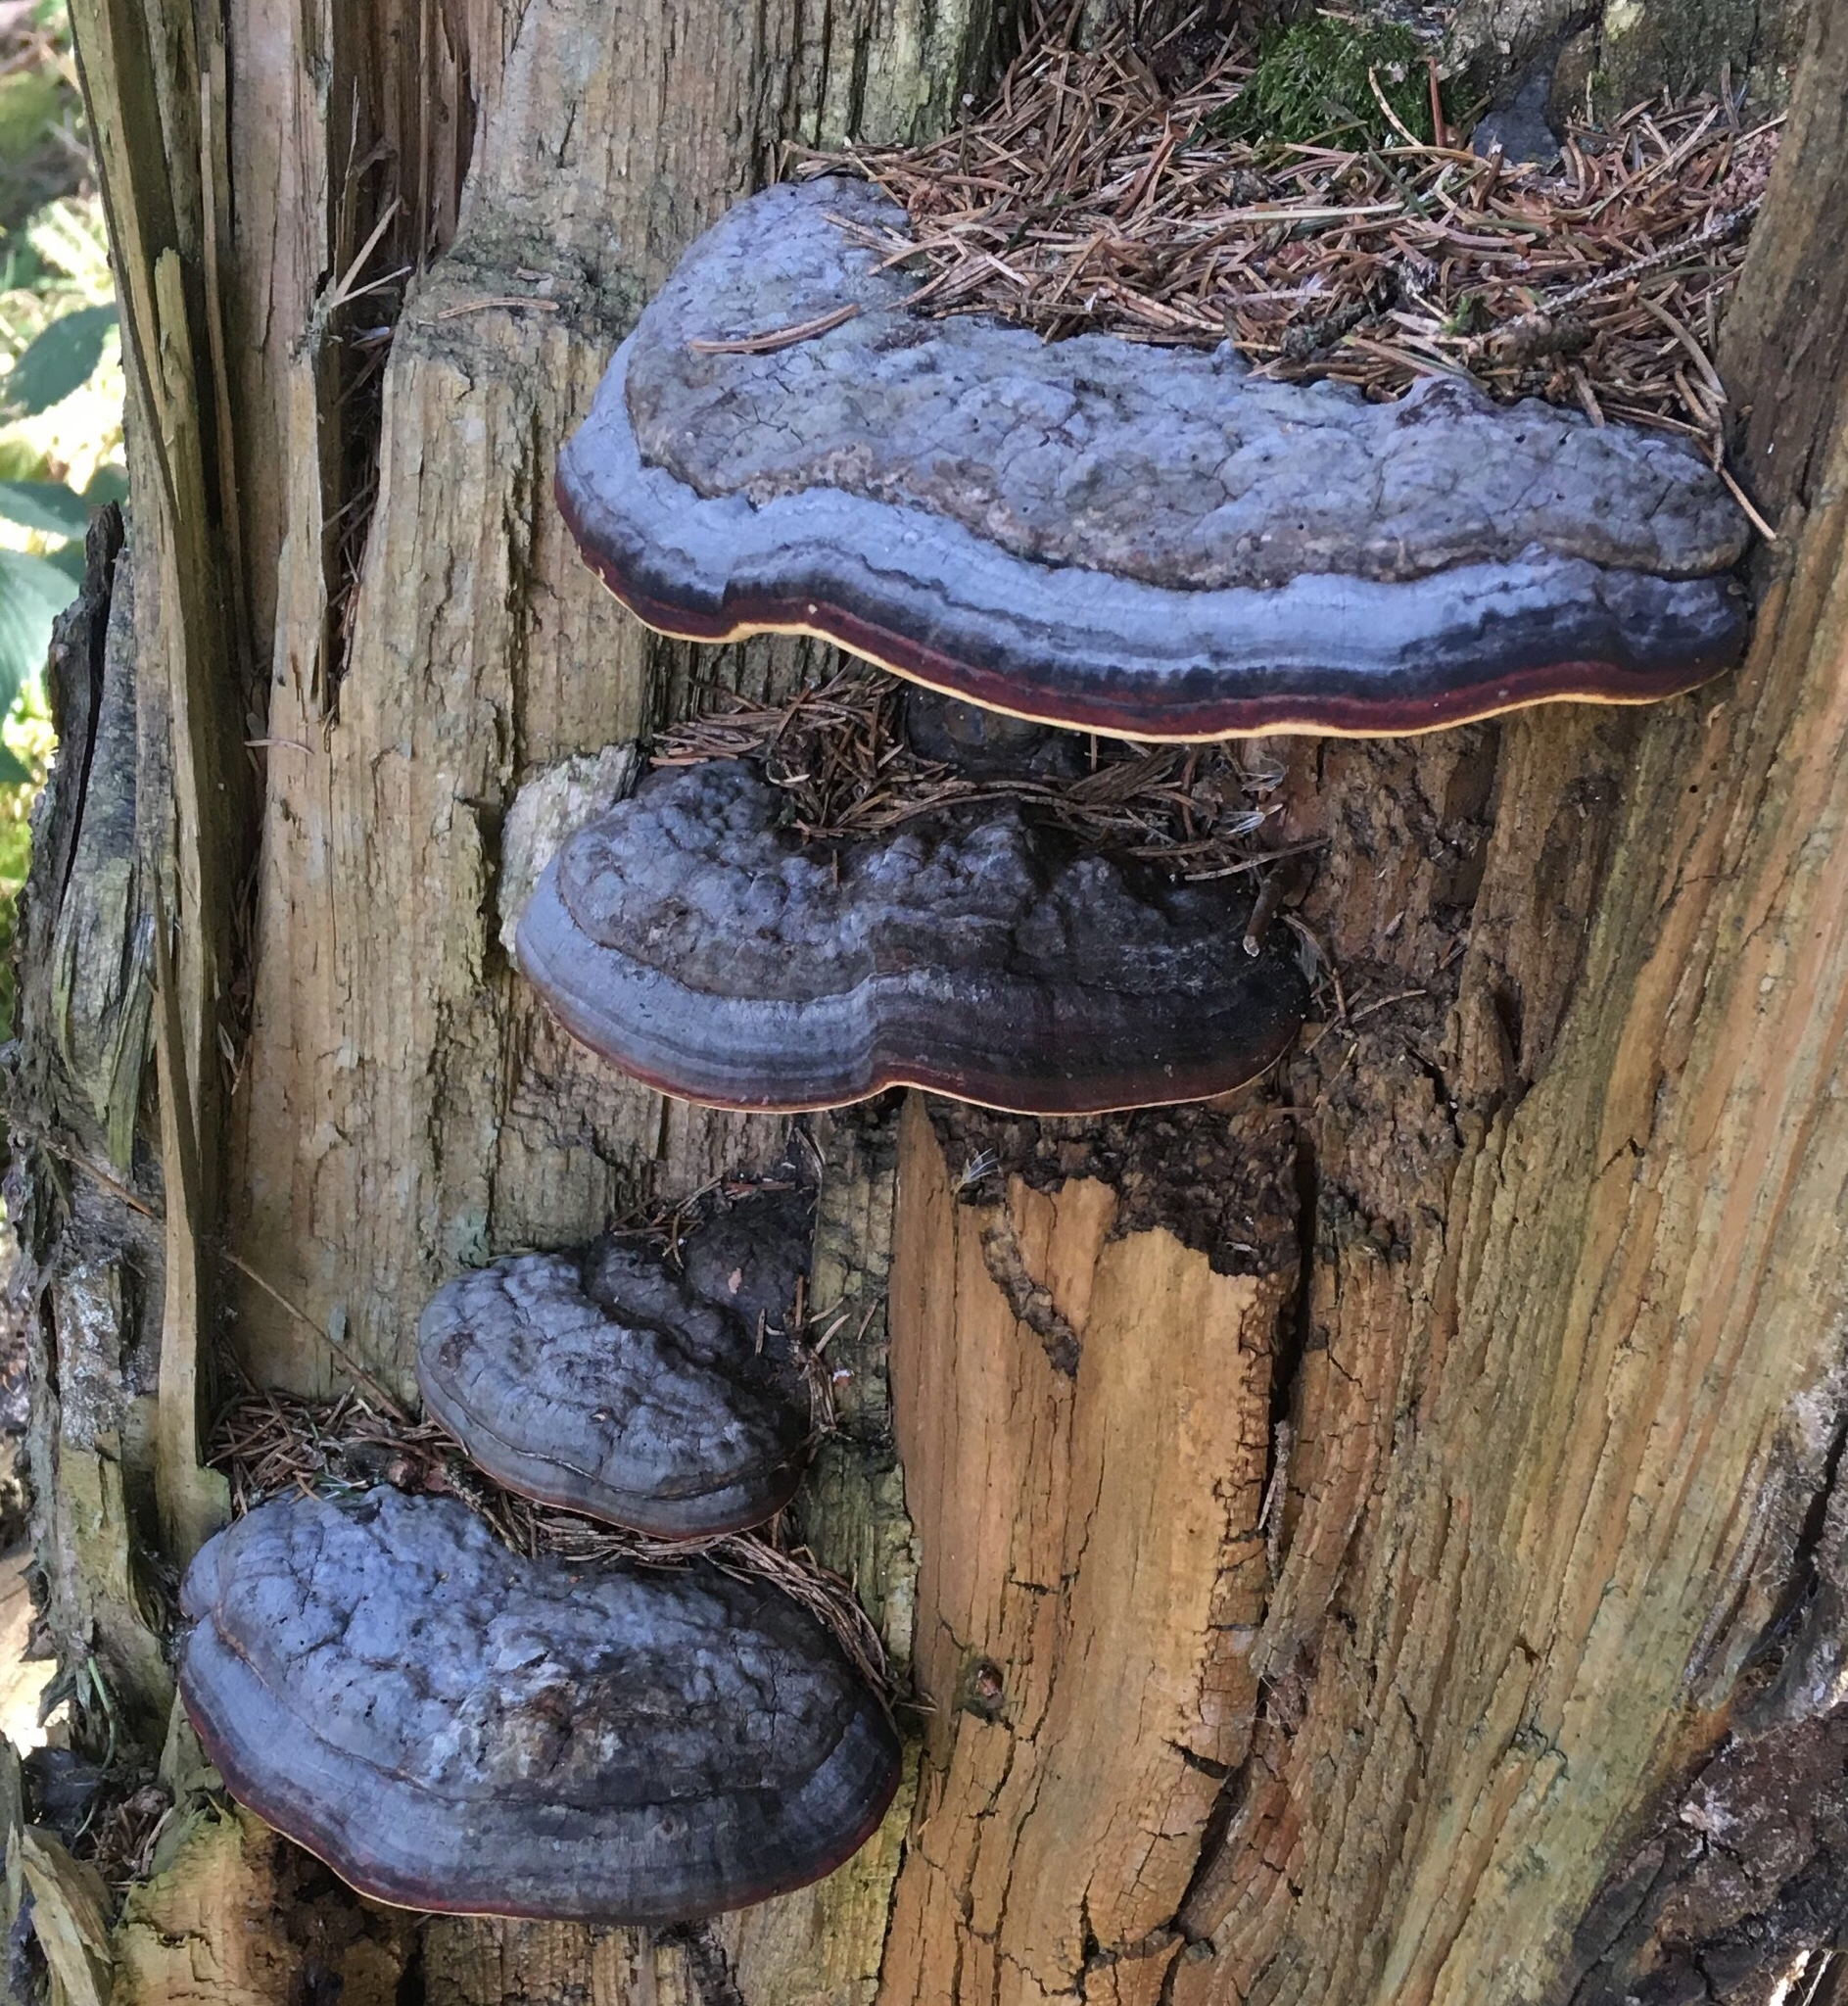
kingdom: Fungi
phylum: Basidiomycota
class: Agaricomycetes
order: Polyporales
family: Fomitopsidaceae
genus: Fomitopsis
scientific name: Fomitopsis pinicola
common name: Red-belted bracket
